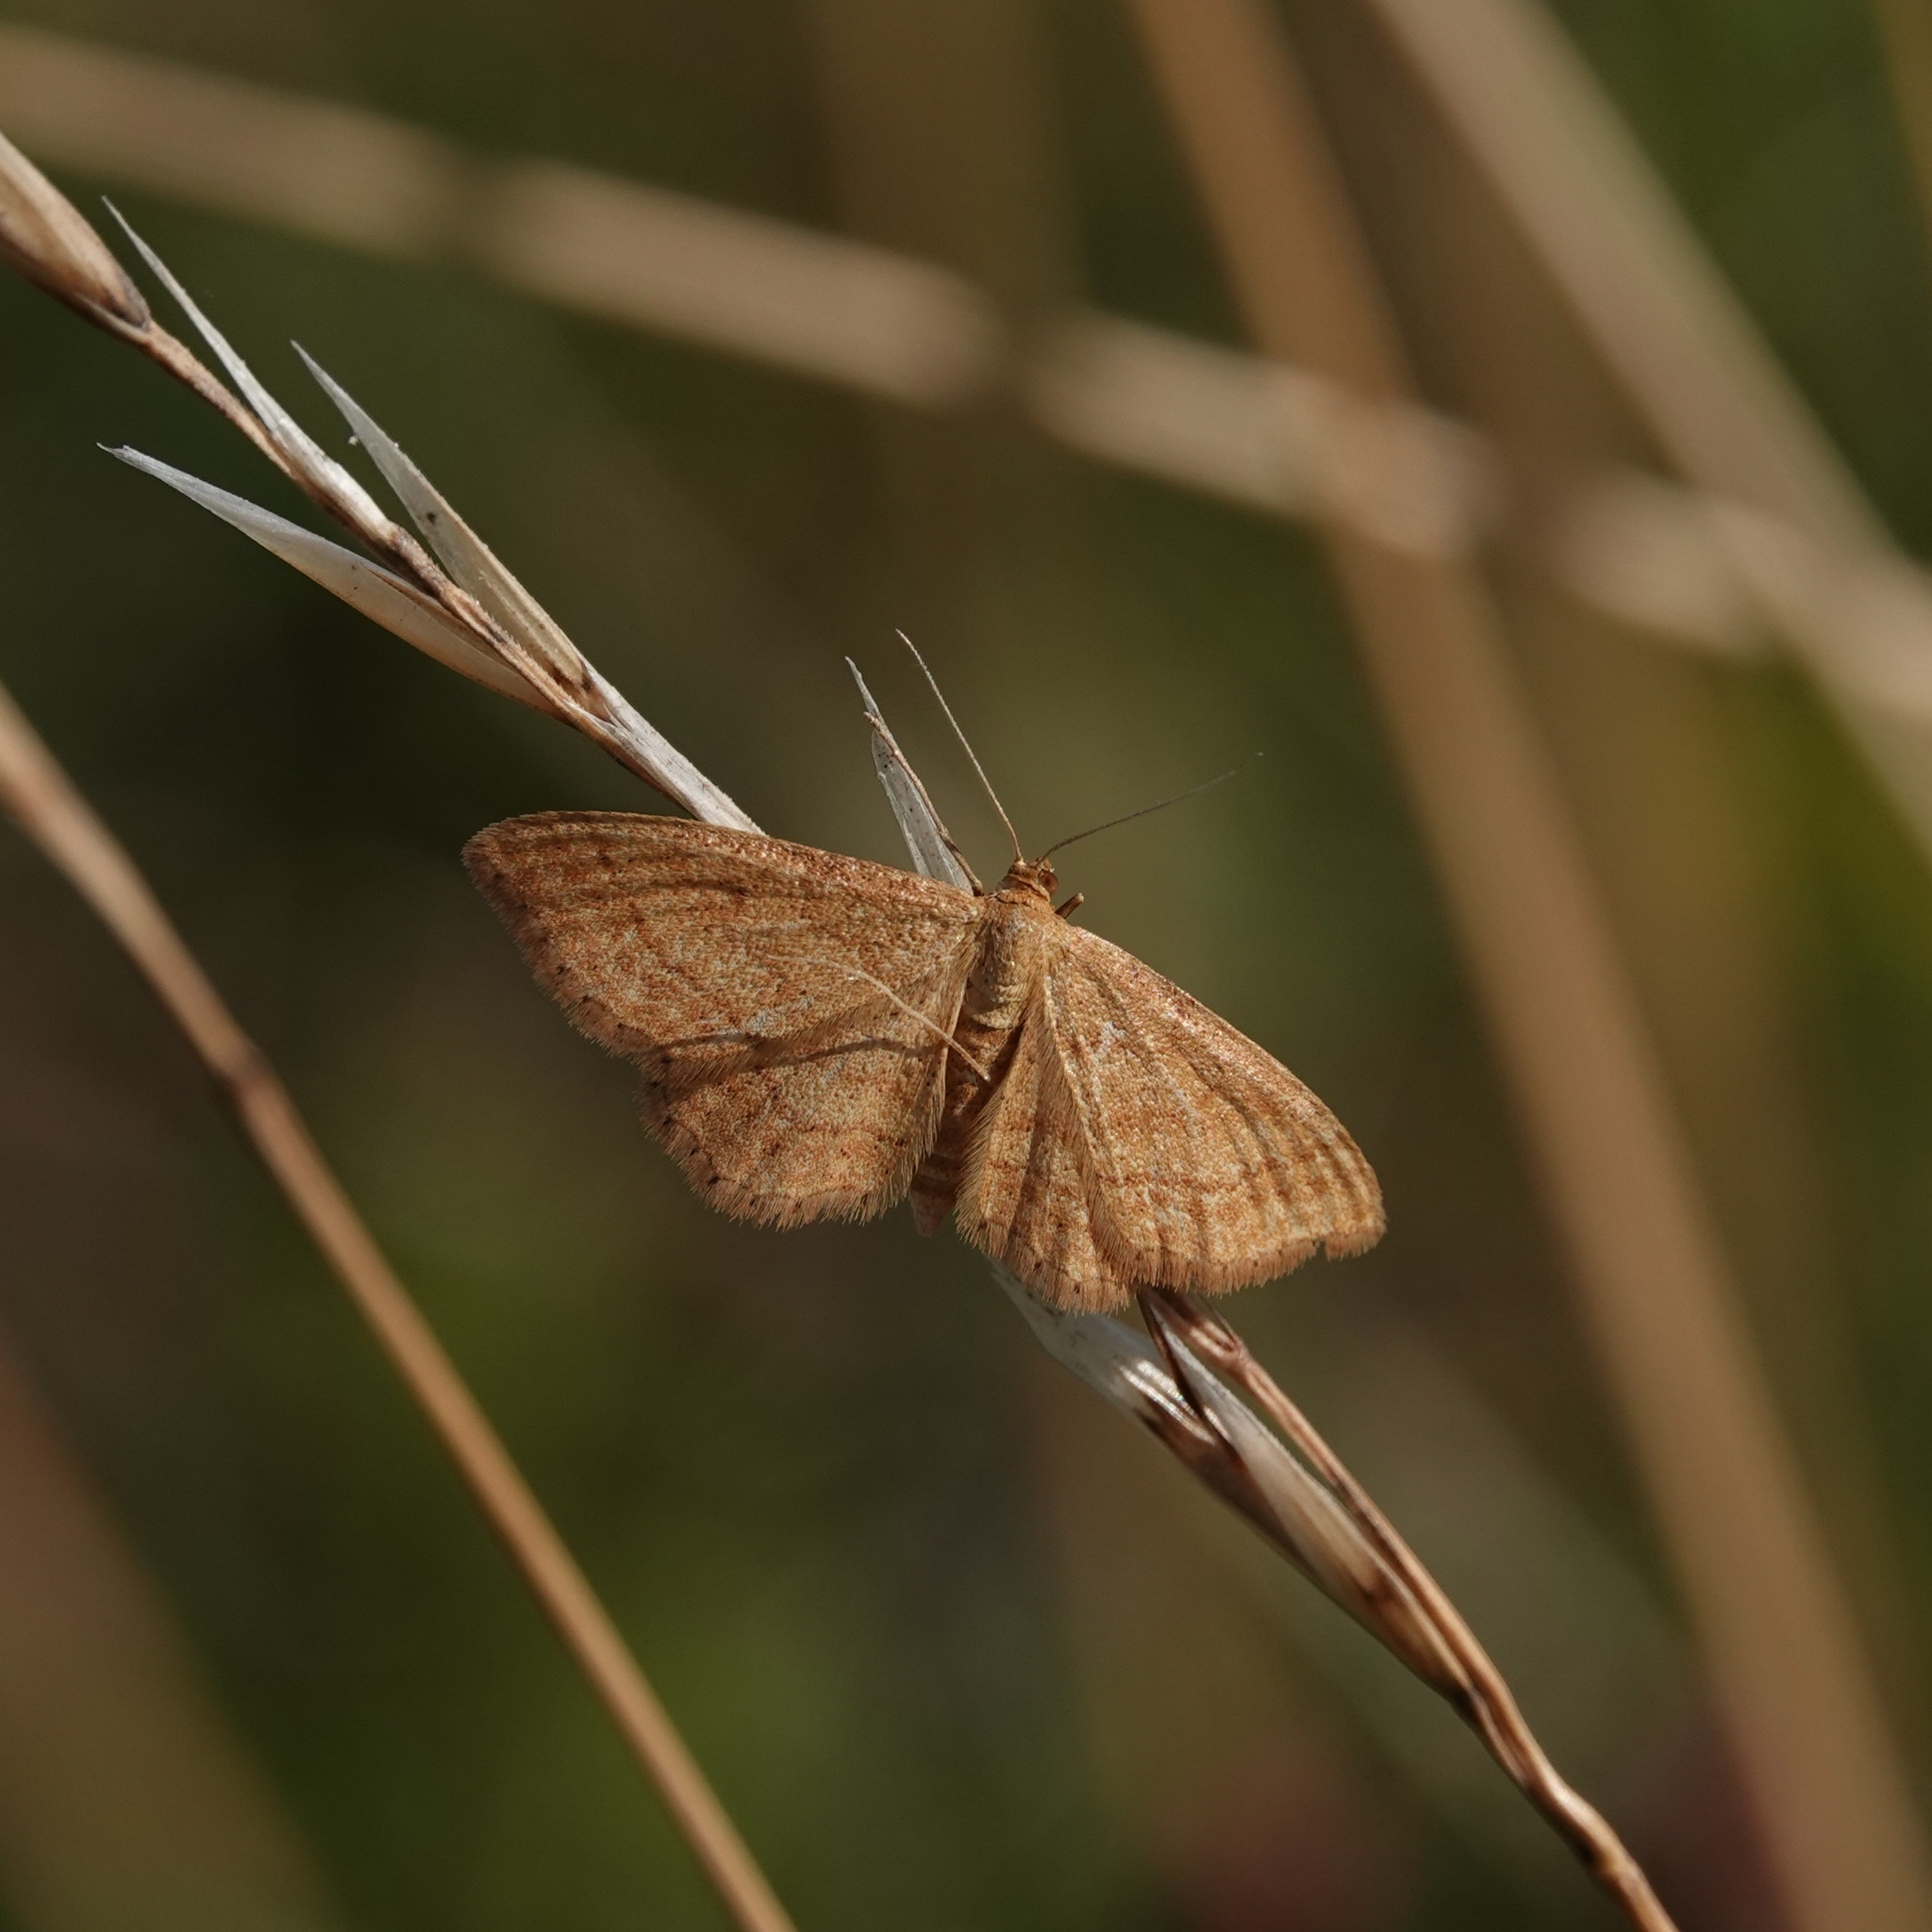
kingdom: Animalia
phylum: Arthropoda
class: Insecta
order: Lepidoptera
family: Geometridae
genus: Idaea
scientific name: Idaea ochrata
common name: Bright wave
